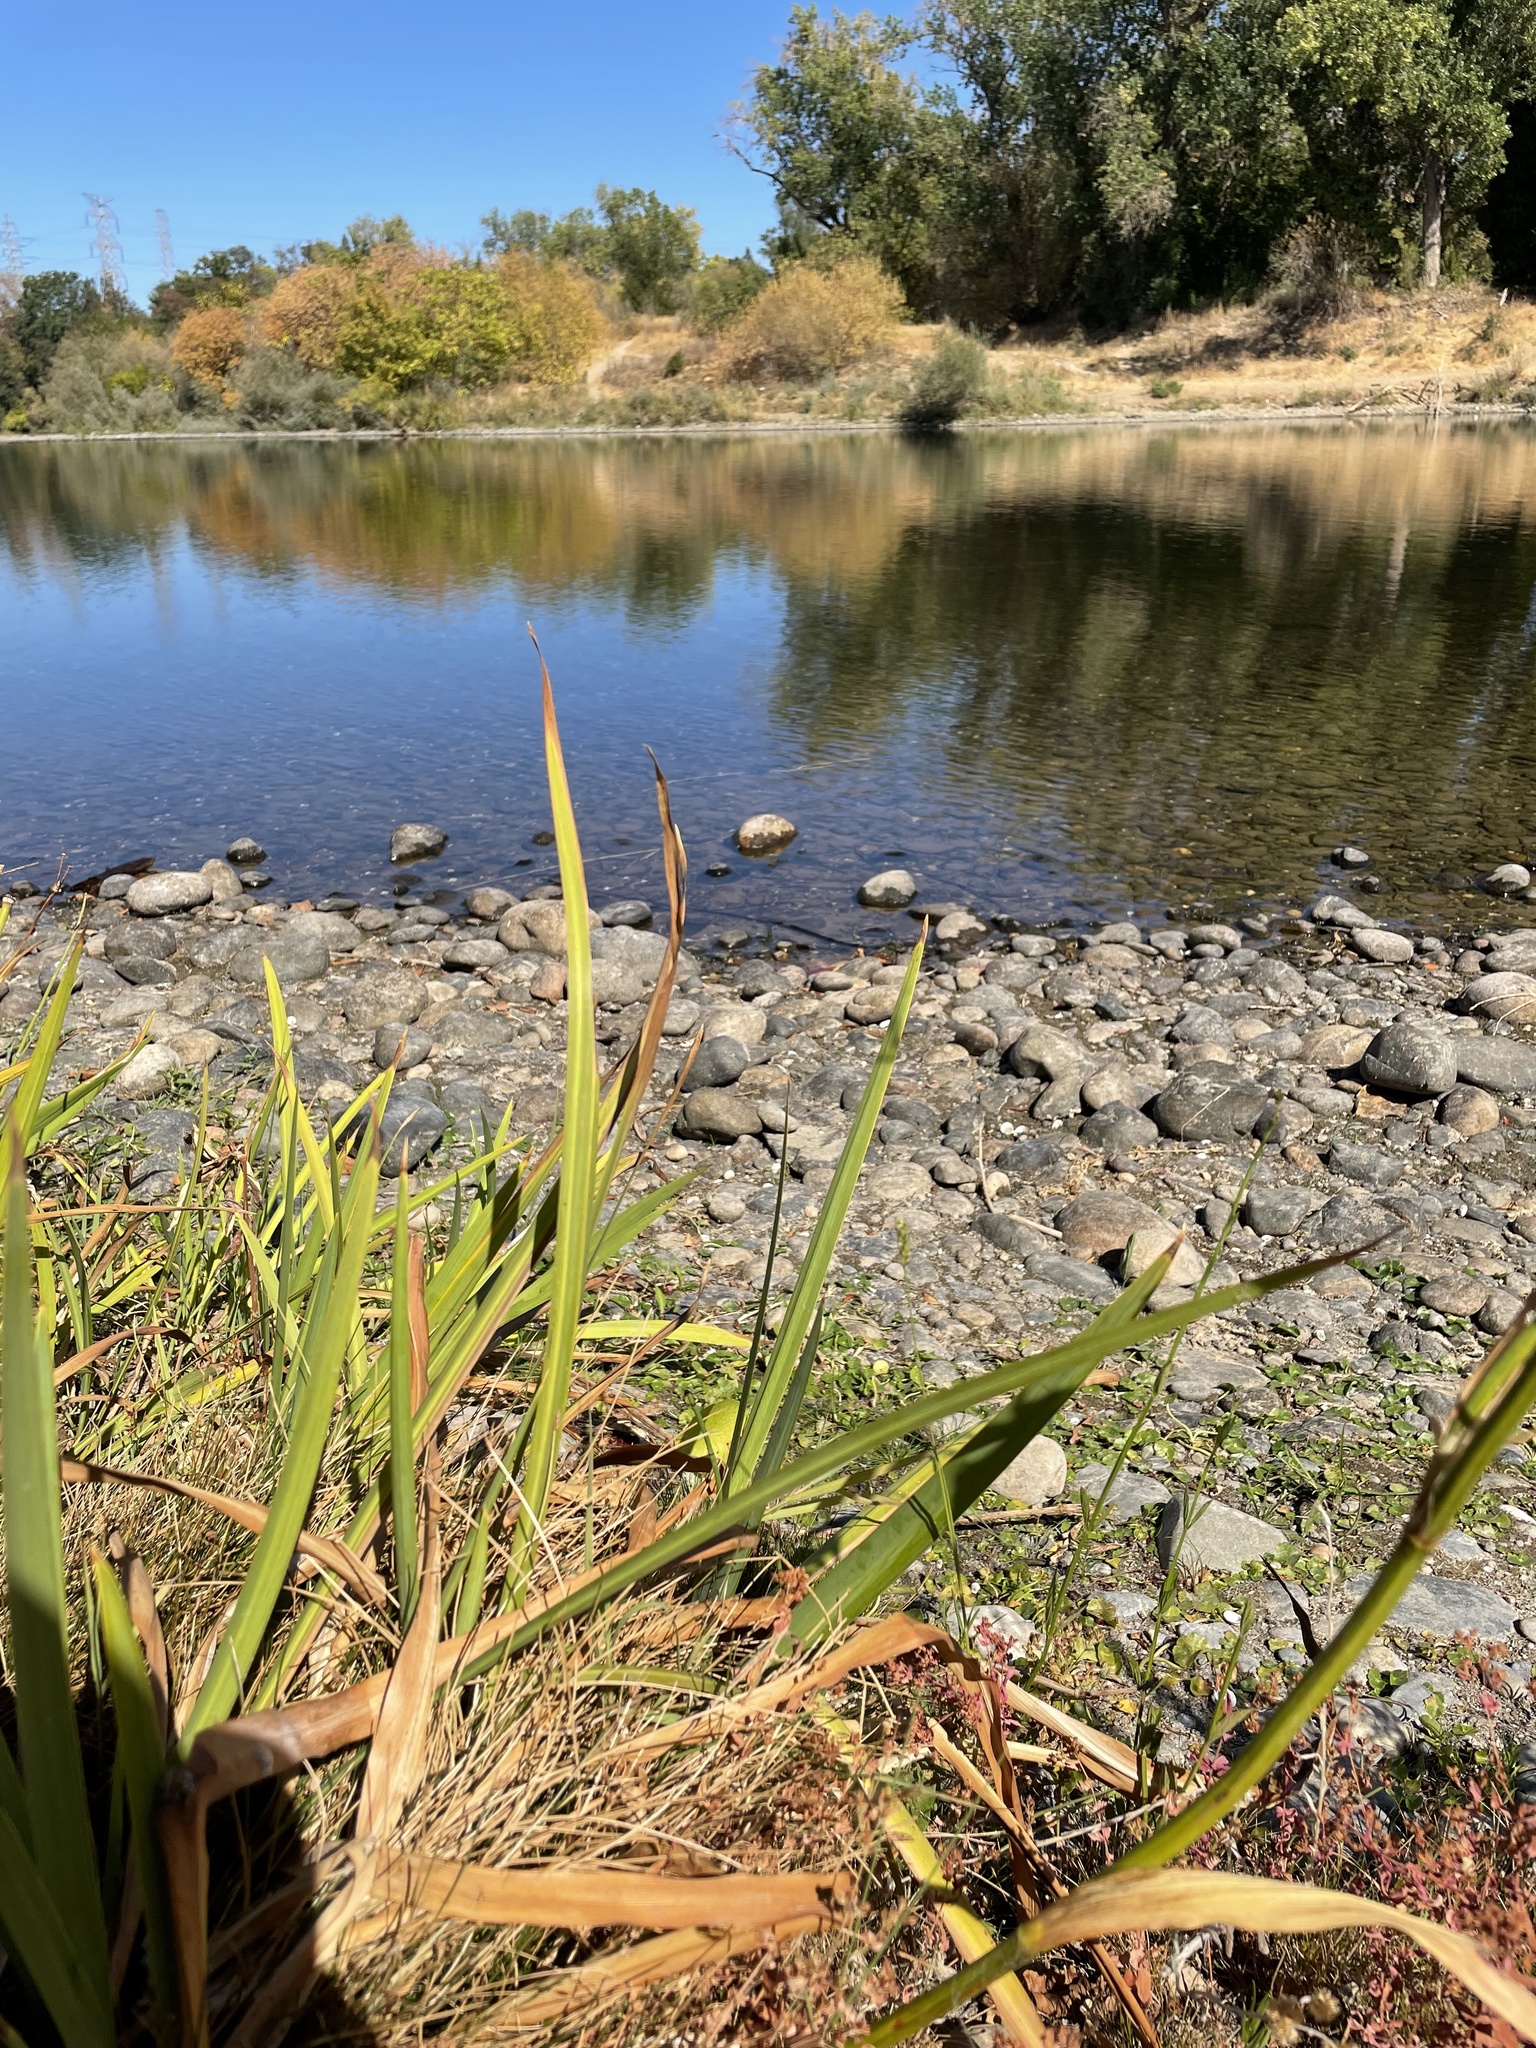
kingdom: Plantae
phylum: Tracheophyta
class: Liliopsida
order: Asparagales
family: Iridaceae
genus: Iris
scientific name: Iris pseudacorus
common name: Yellow flag
